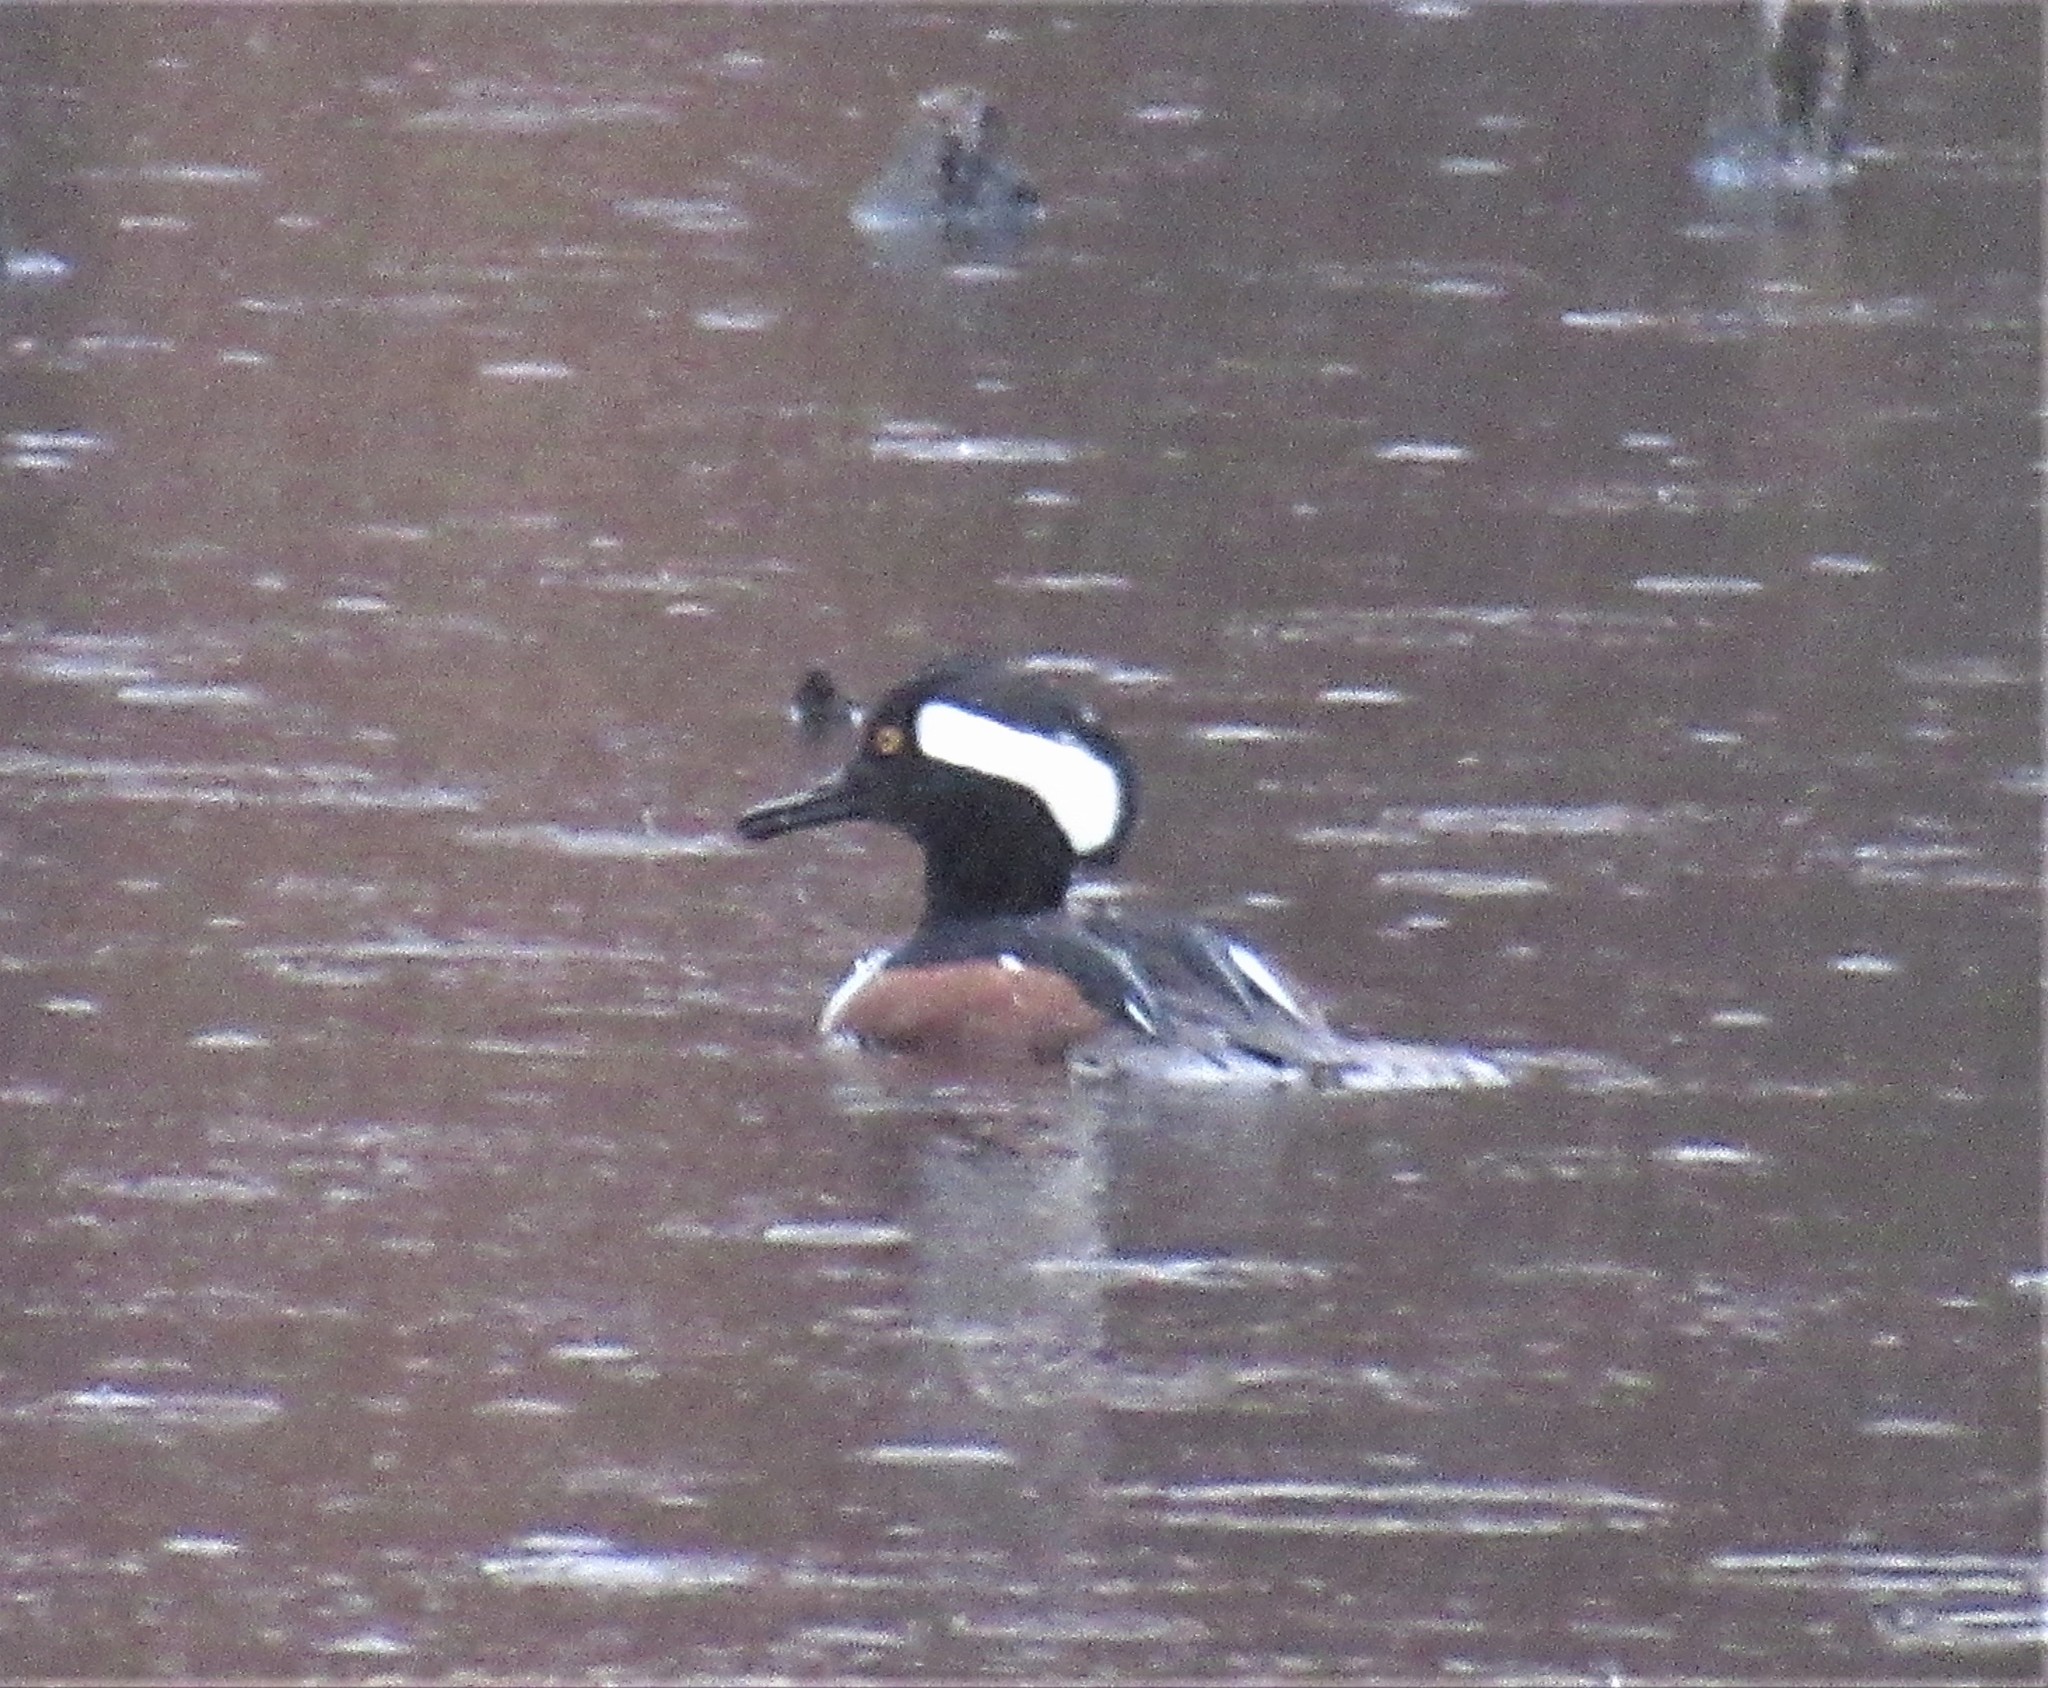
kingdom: Animalia
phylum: Chordata
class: Aves
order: Anseriformes
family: Anatidae
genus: Lophodytes
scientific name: Lophodytes cucullatus
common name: Hooded merganser
